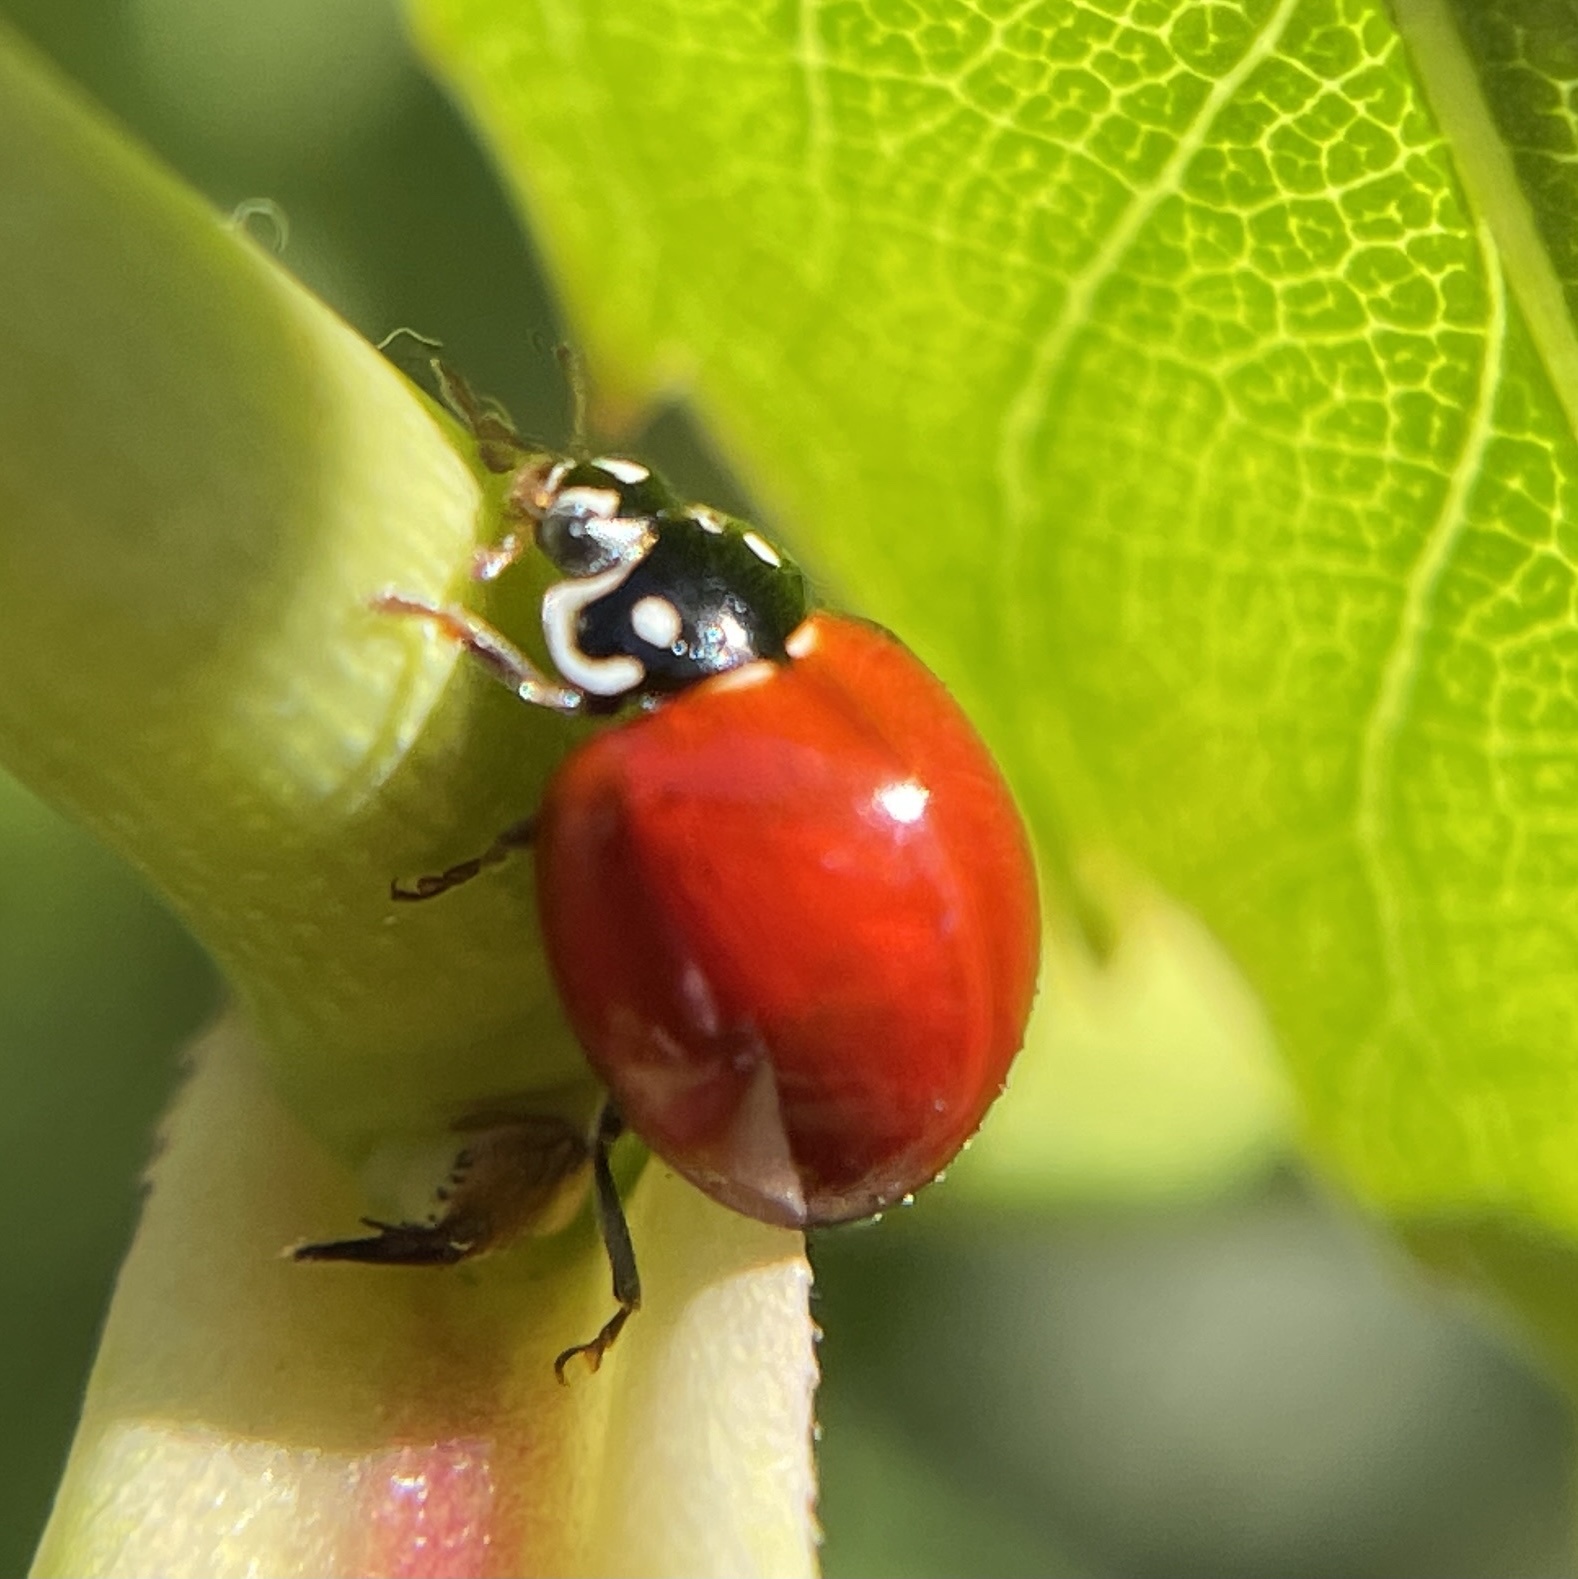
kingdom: Animalia
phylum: Arthropoda
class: Insecta
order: Coleoptera
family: Coccinellidae
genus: Cycloneda
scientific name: Cycloneda sanguinea
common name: Ladybird beetle
